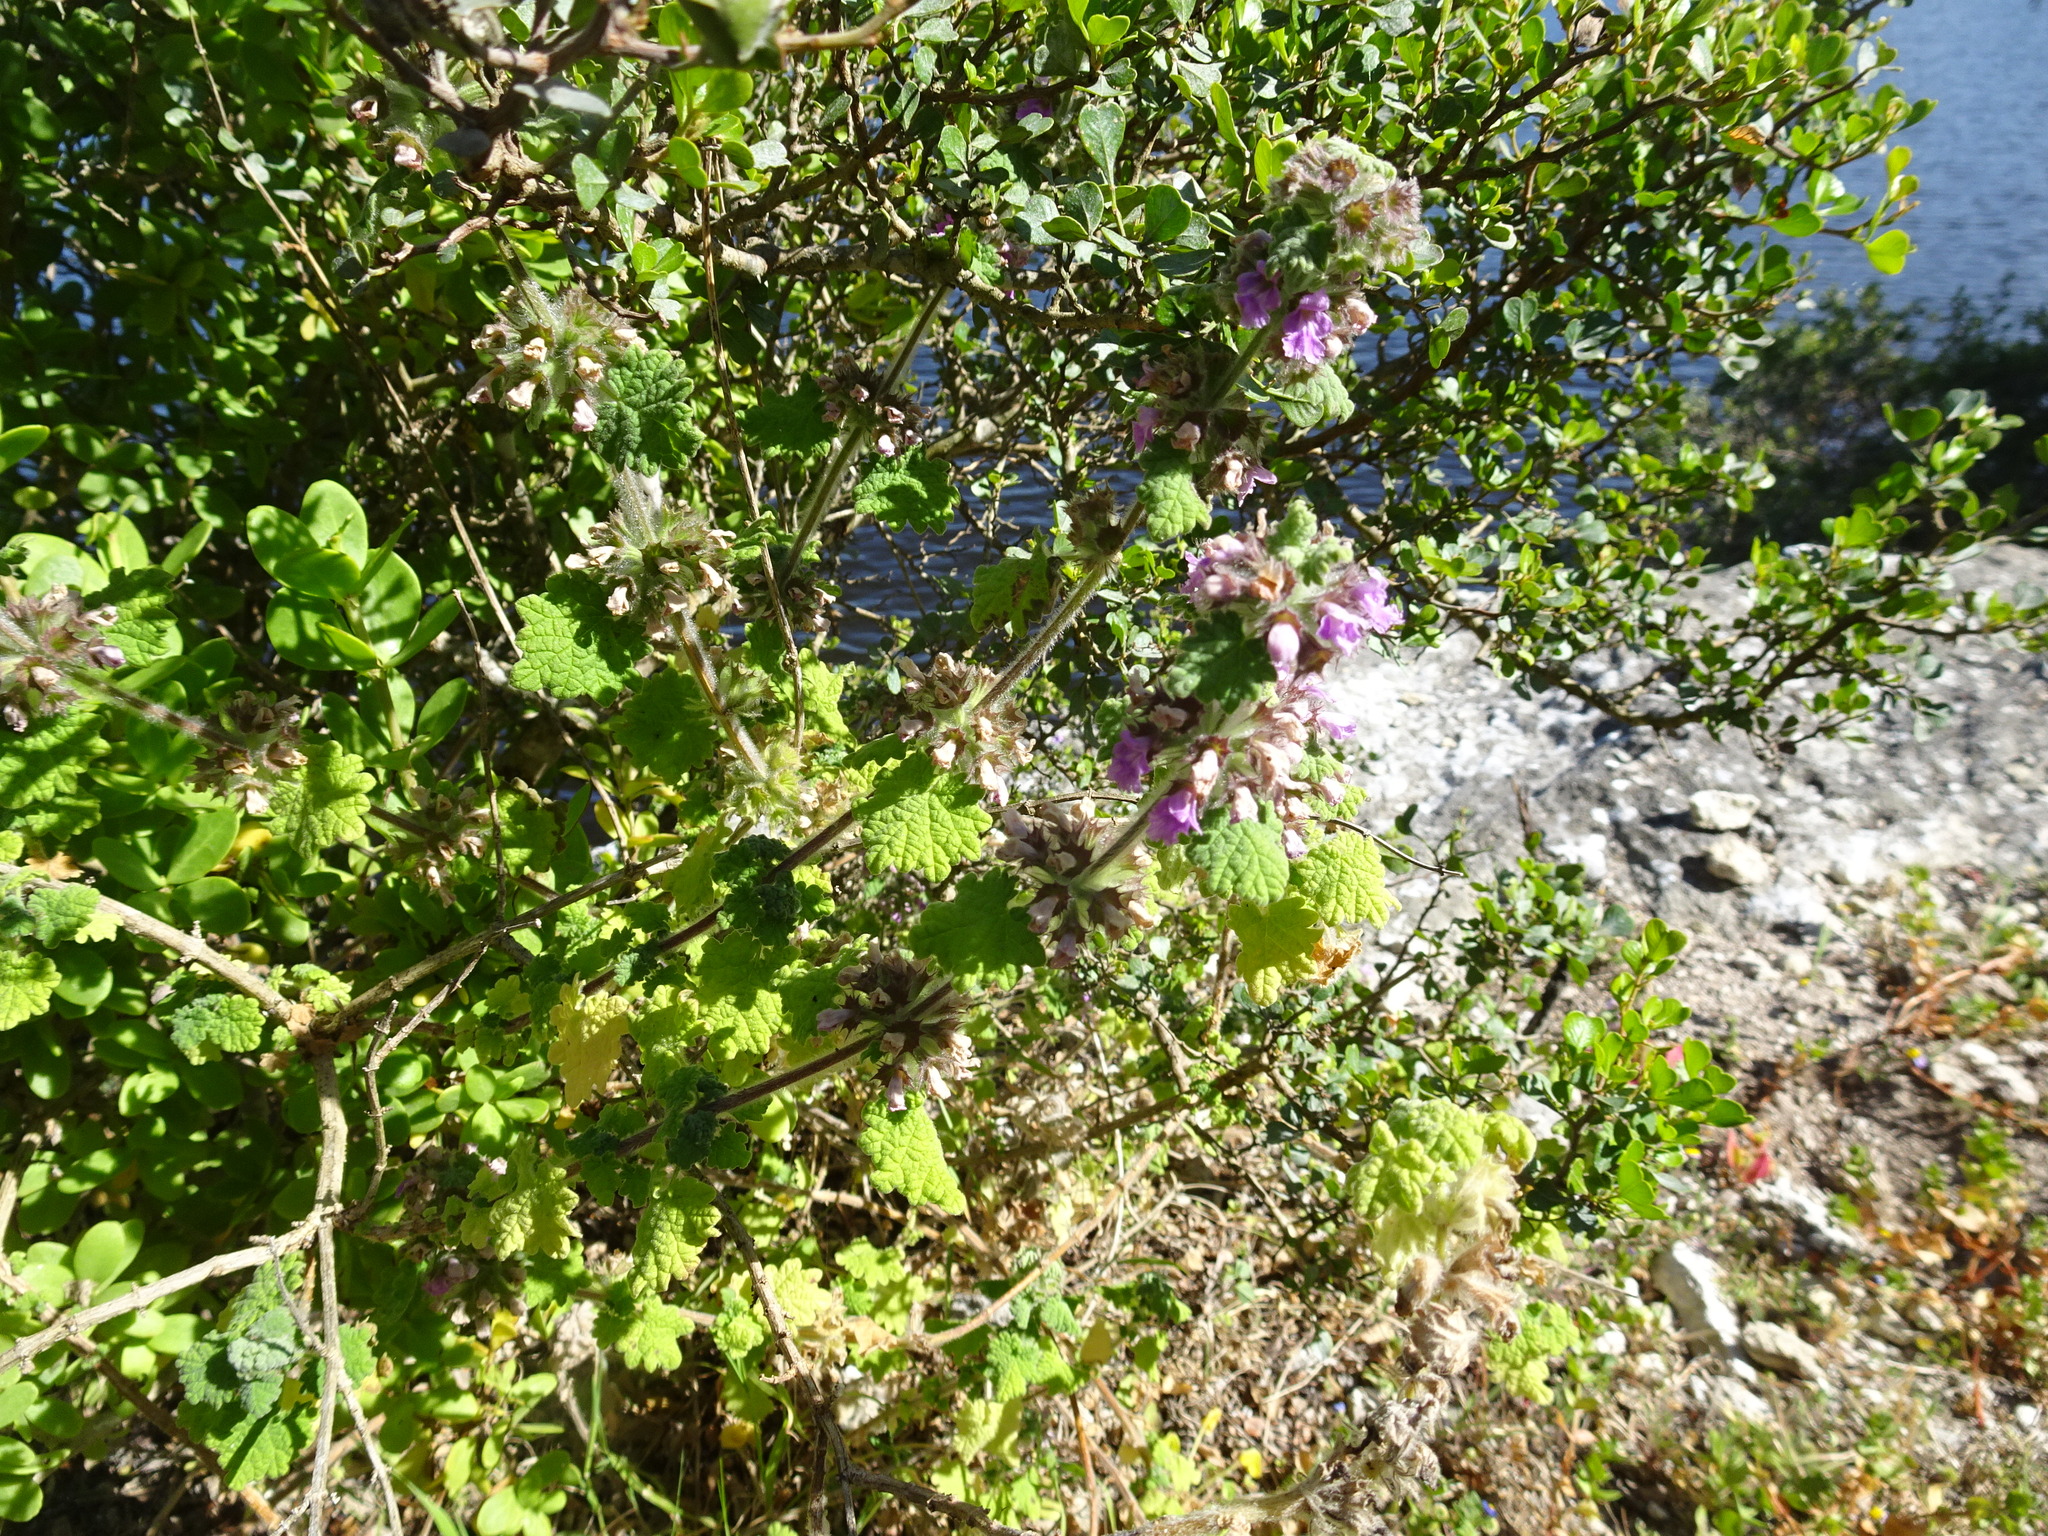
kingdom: Plantae
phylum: Tracheophyta
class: Magnoliopsida
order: Lamiales
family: Lamiaceae
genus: Pseudodictamnus
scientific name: Pseudodictamnus africanus
